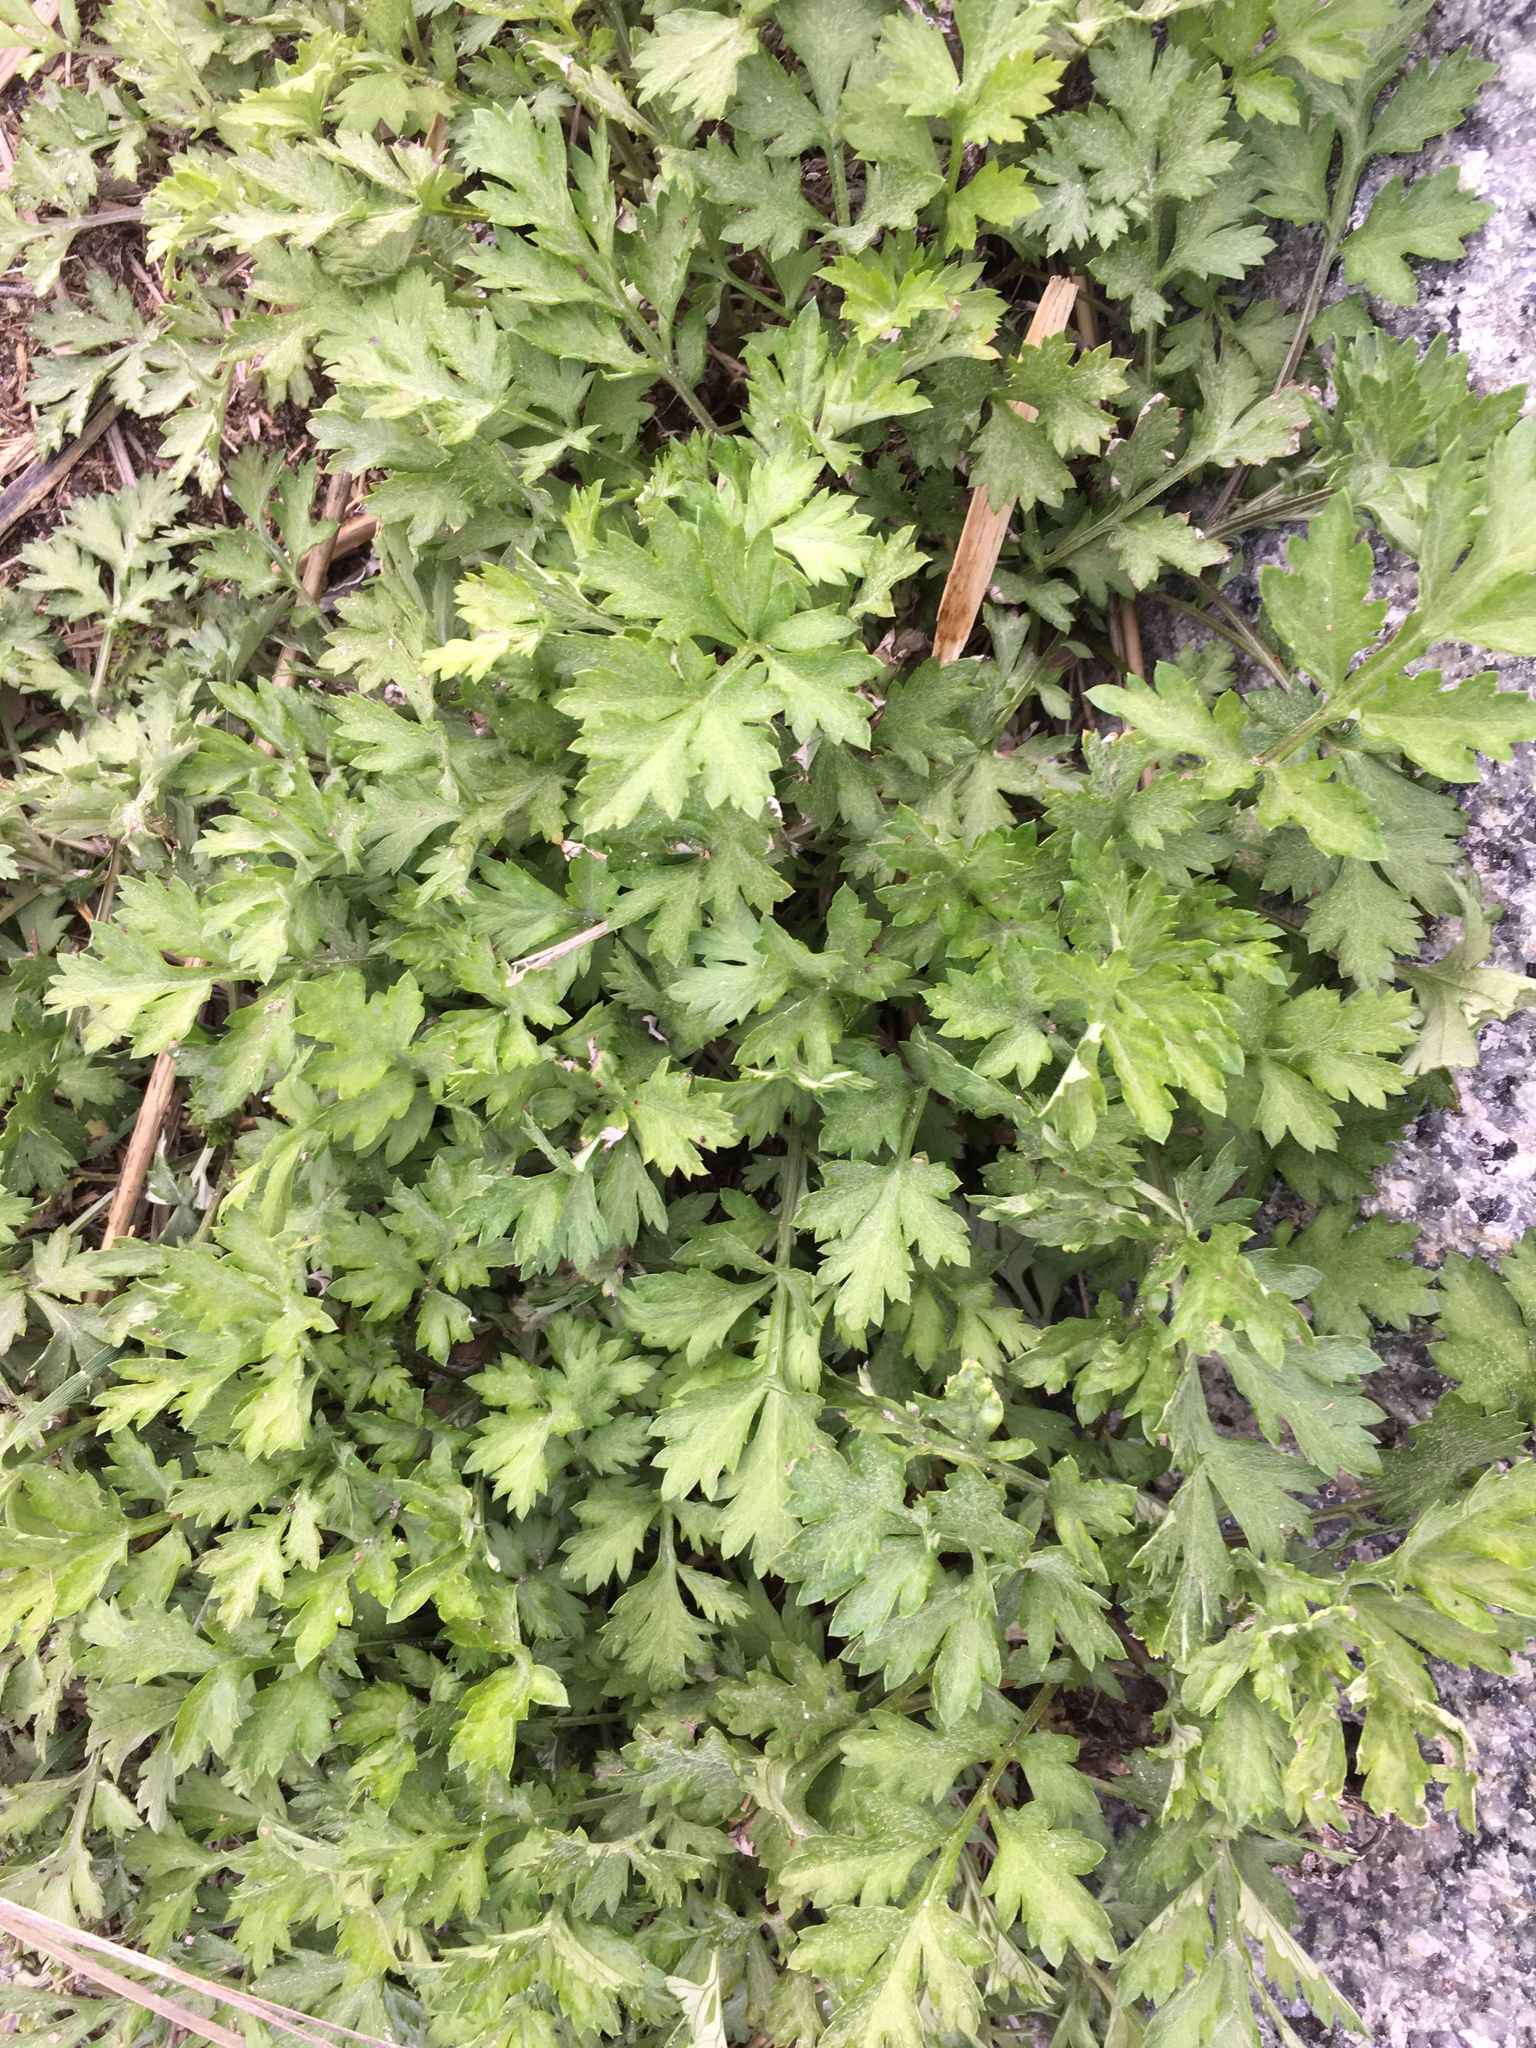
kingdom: Plantae
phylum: Tracheophyta
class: Magnoliopsida
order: Asterales
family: Asteraceae
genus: Artemisia
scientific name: Artemisia vulgaris
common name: Mugwort
